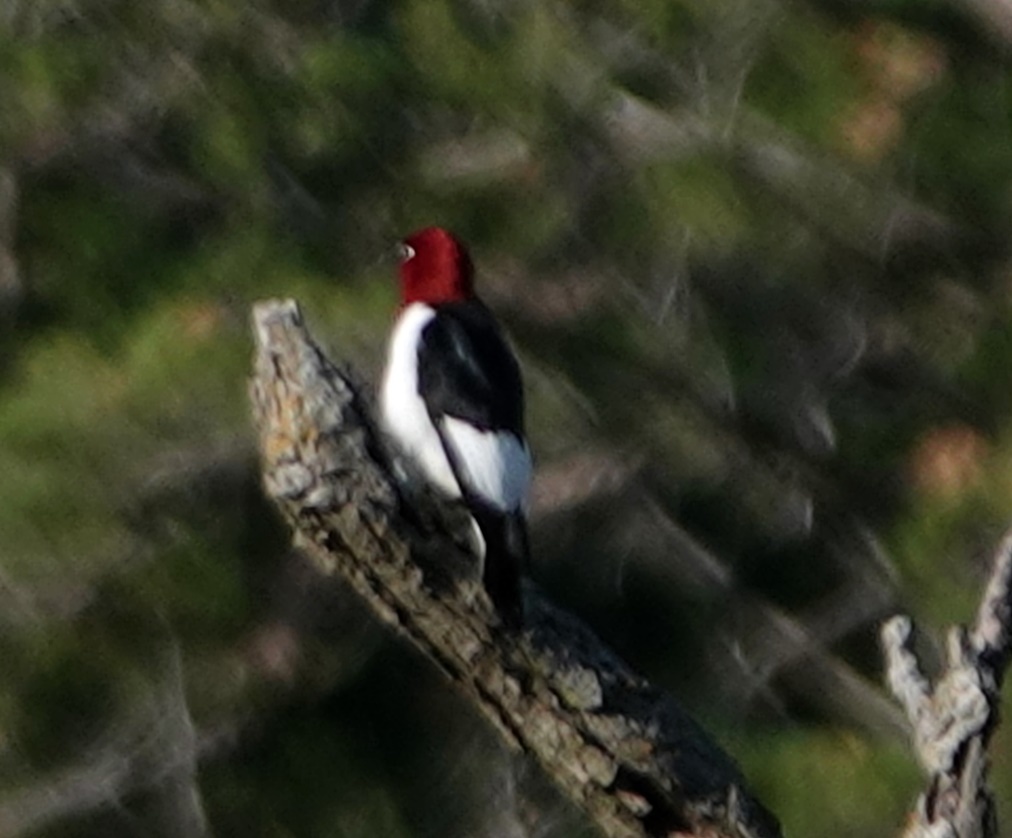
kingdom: Animalia
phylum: Chordata
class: Aves
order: Piciformes
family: Picidae
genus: Melanerpes
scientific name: Melanerpes erythrocephalus
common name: Red-headed woodpecker
